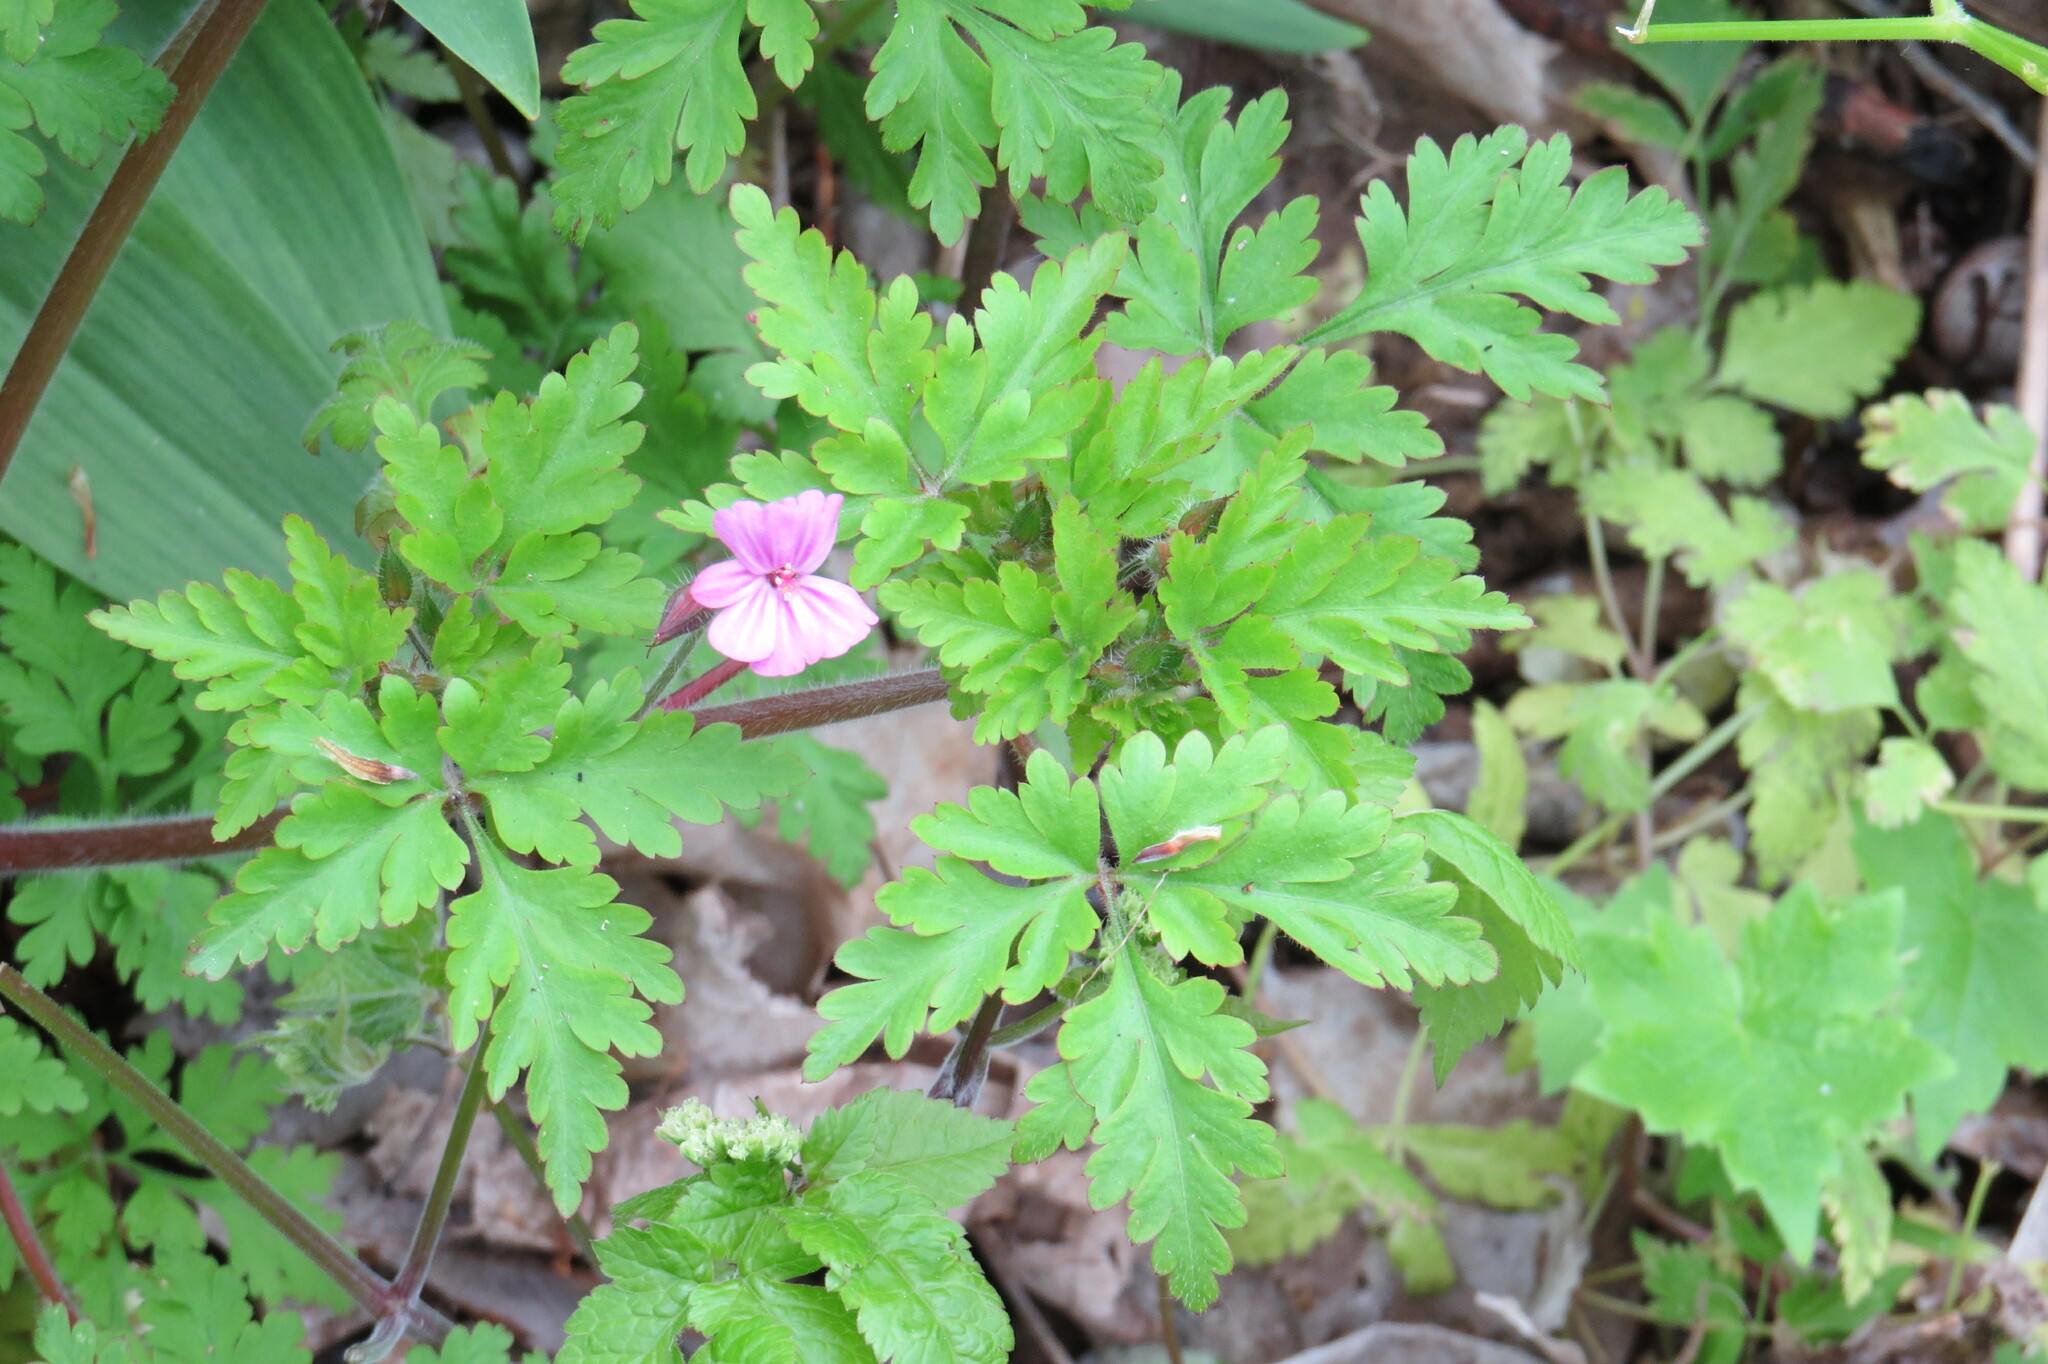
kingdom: Plantae
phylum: Tracheophyta
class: Magnoliopsida
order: Geraniales
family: Geraniaceae
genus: Geranium
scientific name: Geranium robertianum
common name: Herb-robert
